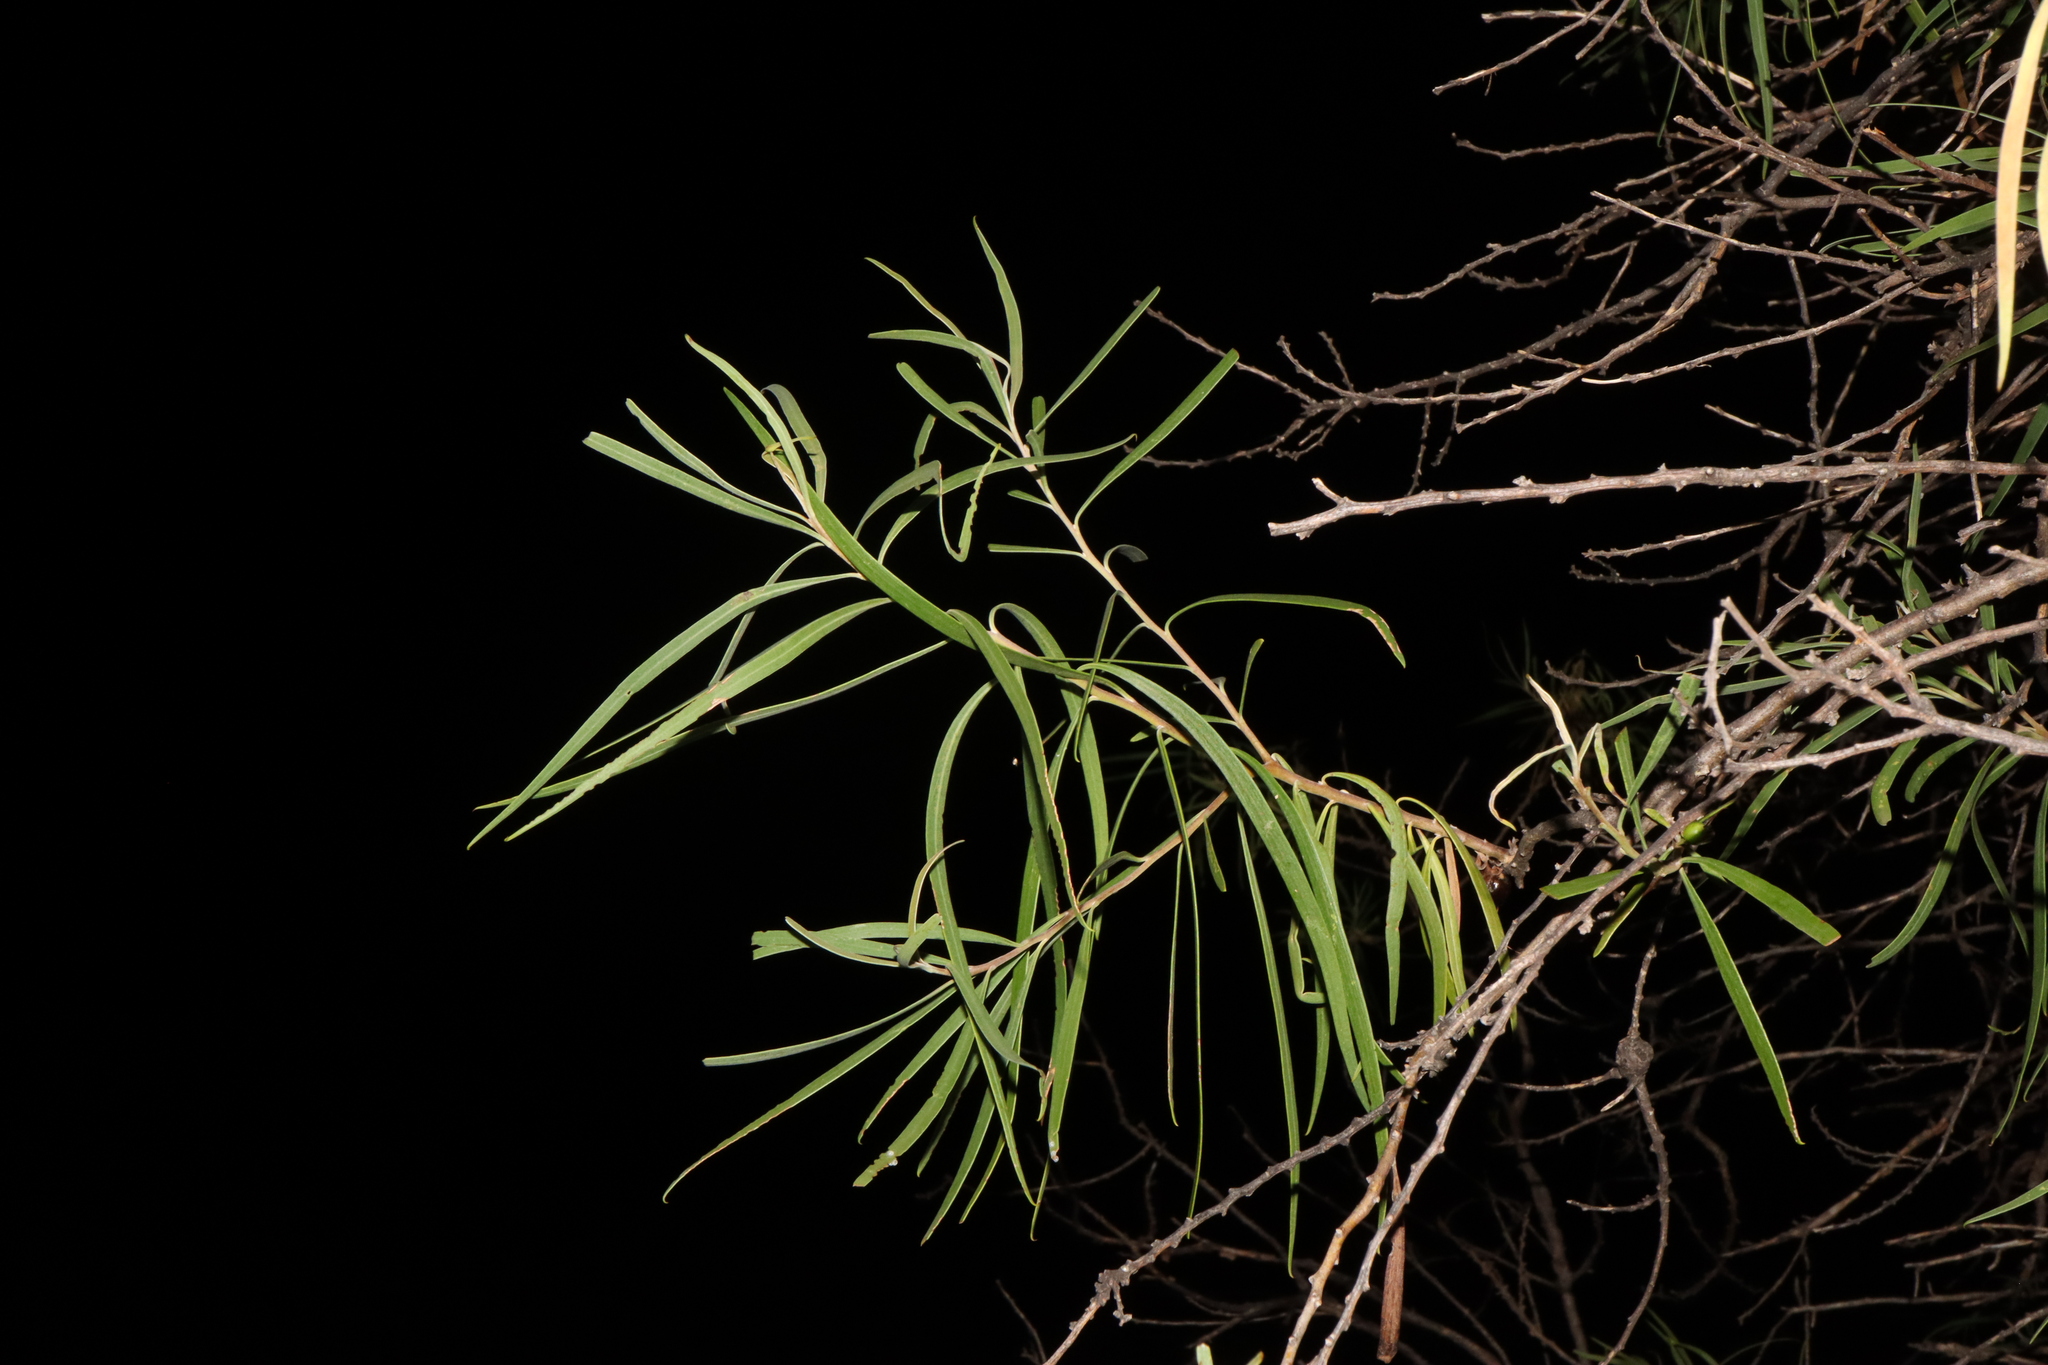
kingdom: Plantae
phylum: Tracheophyta
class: Magnoliopsida
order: Lamiales
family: Scrophulariaceae
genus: Eremophila
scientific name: Eremophila longifolia
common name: Longleaf emubush
